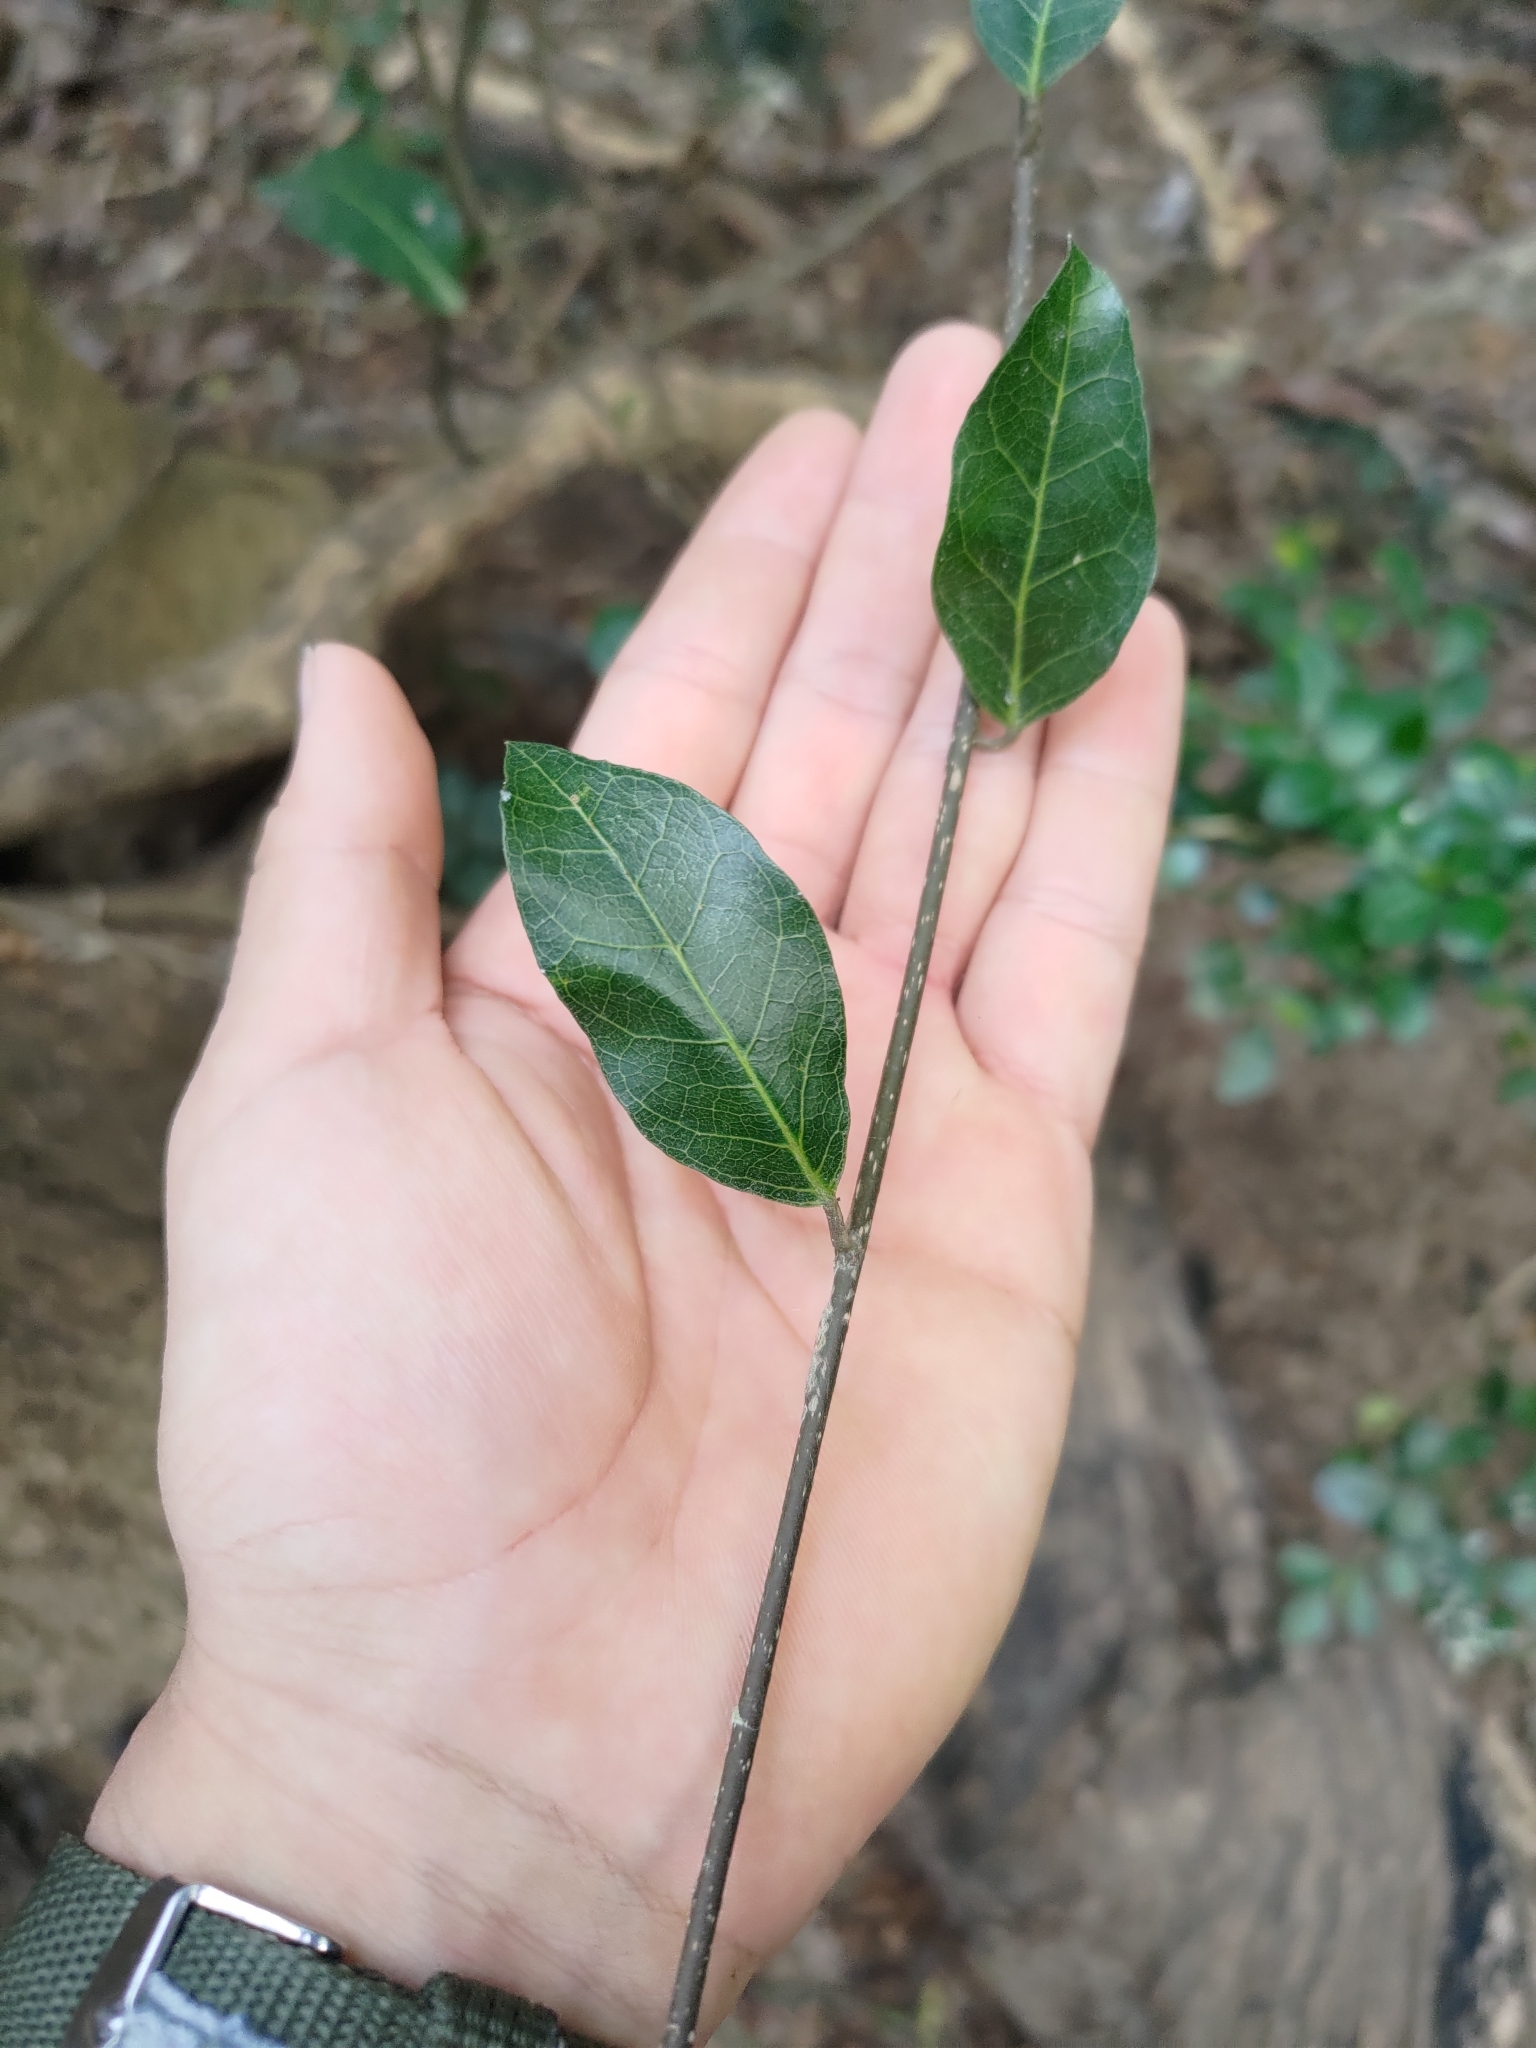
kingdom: Plantae
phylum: Tracheophyta
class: Magnoliopsida
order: Rosales
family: Moraceae
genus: Malaisia
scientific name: Malaisia scandens
